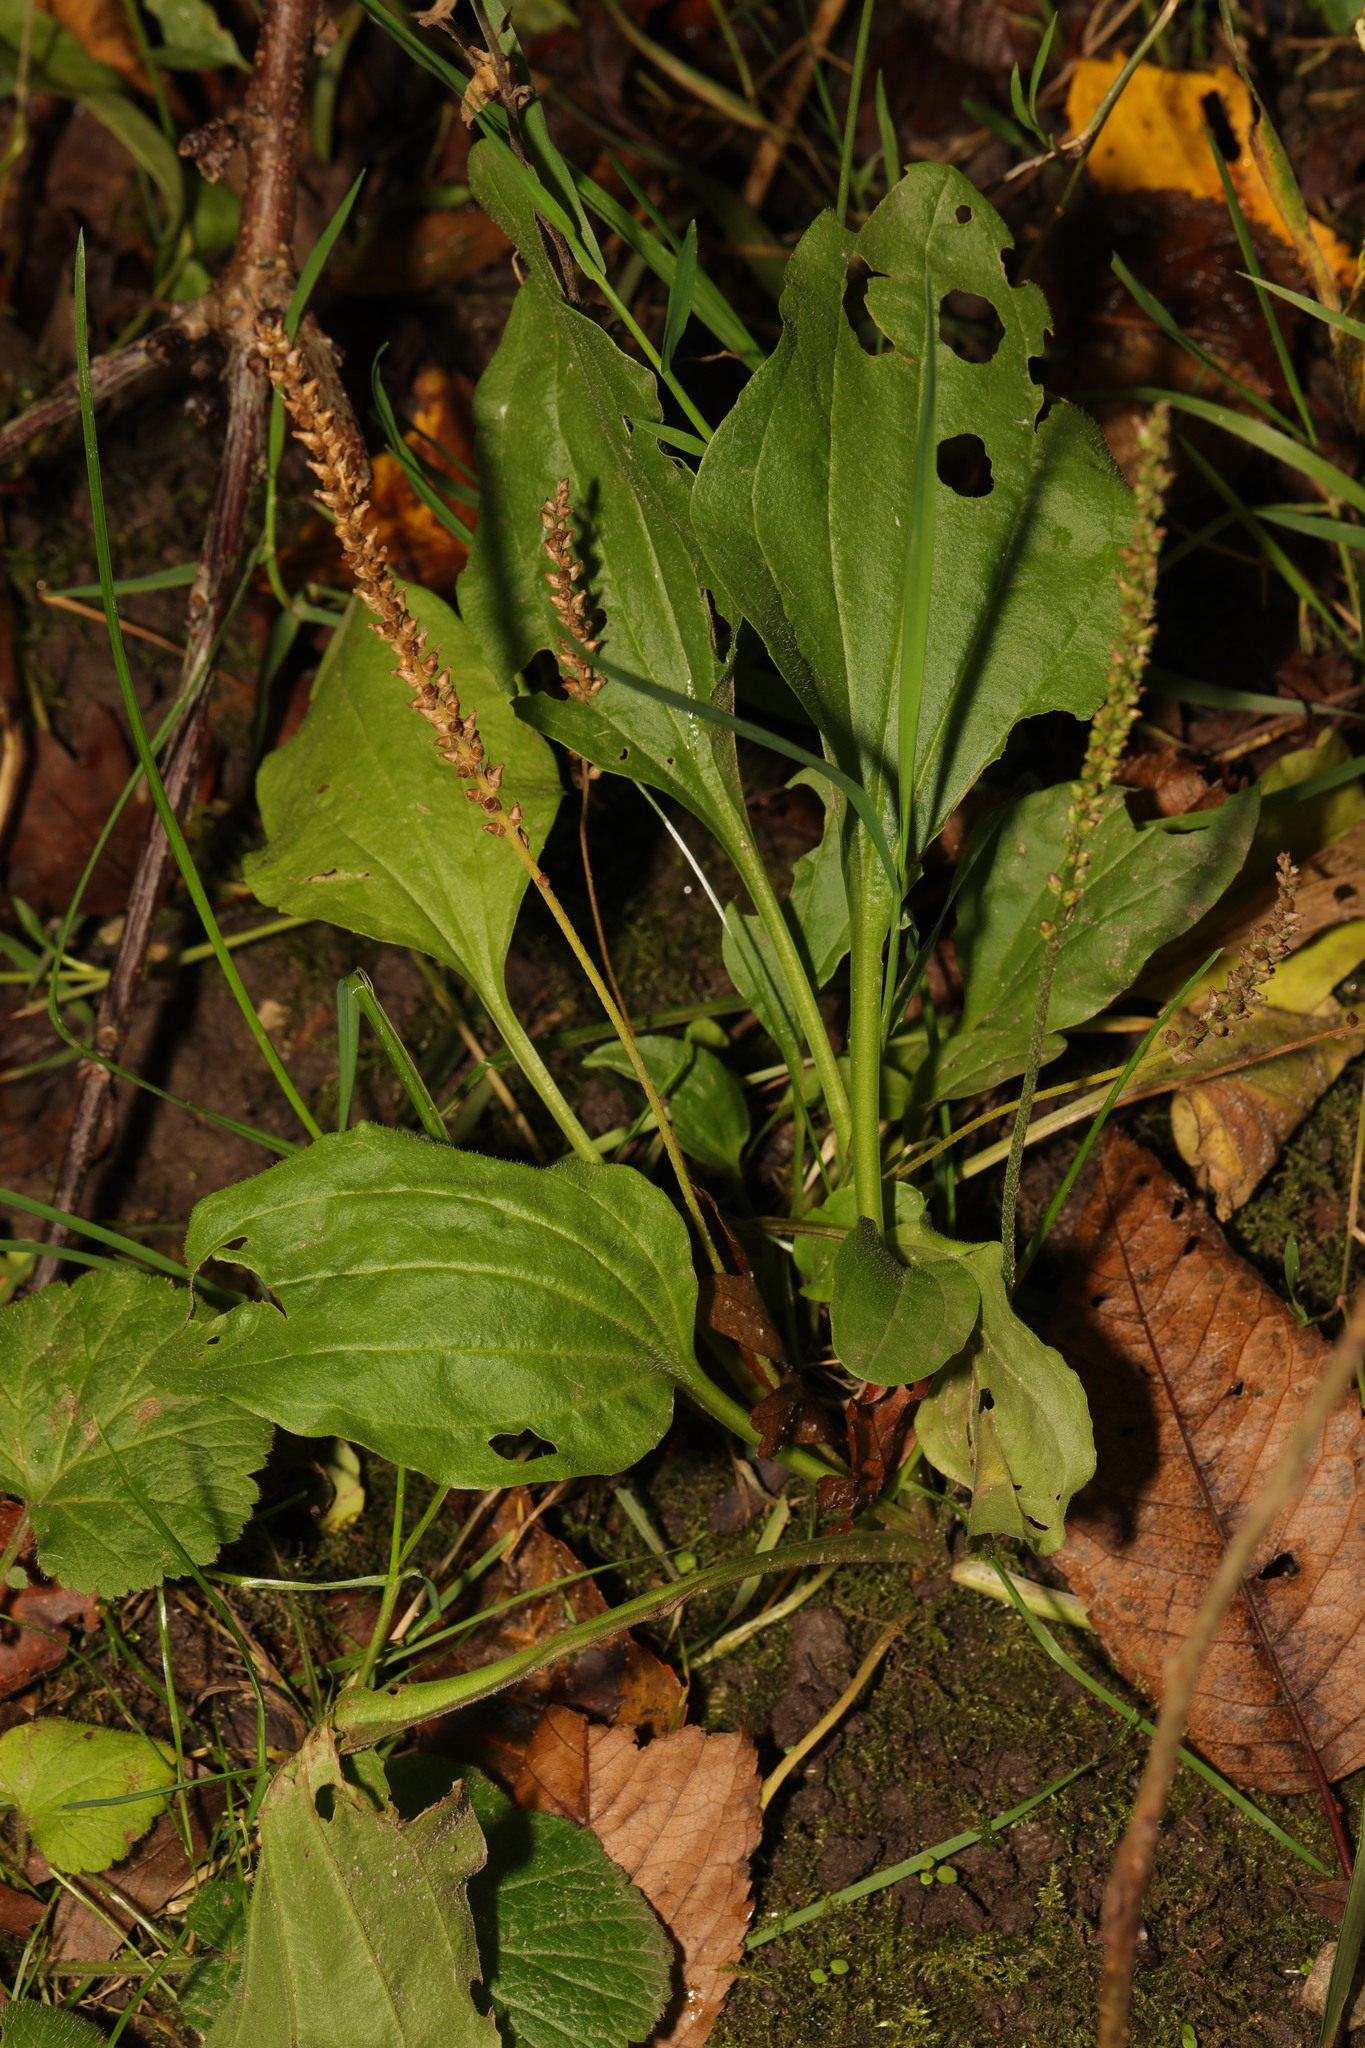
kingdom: Plantae
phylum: Tracheophyta
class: Magnoliopsida
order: Lamiales
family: Plantaginaceae
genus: Plantago
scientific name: Plantago major
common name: Common plantain
